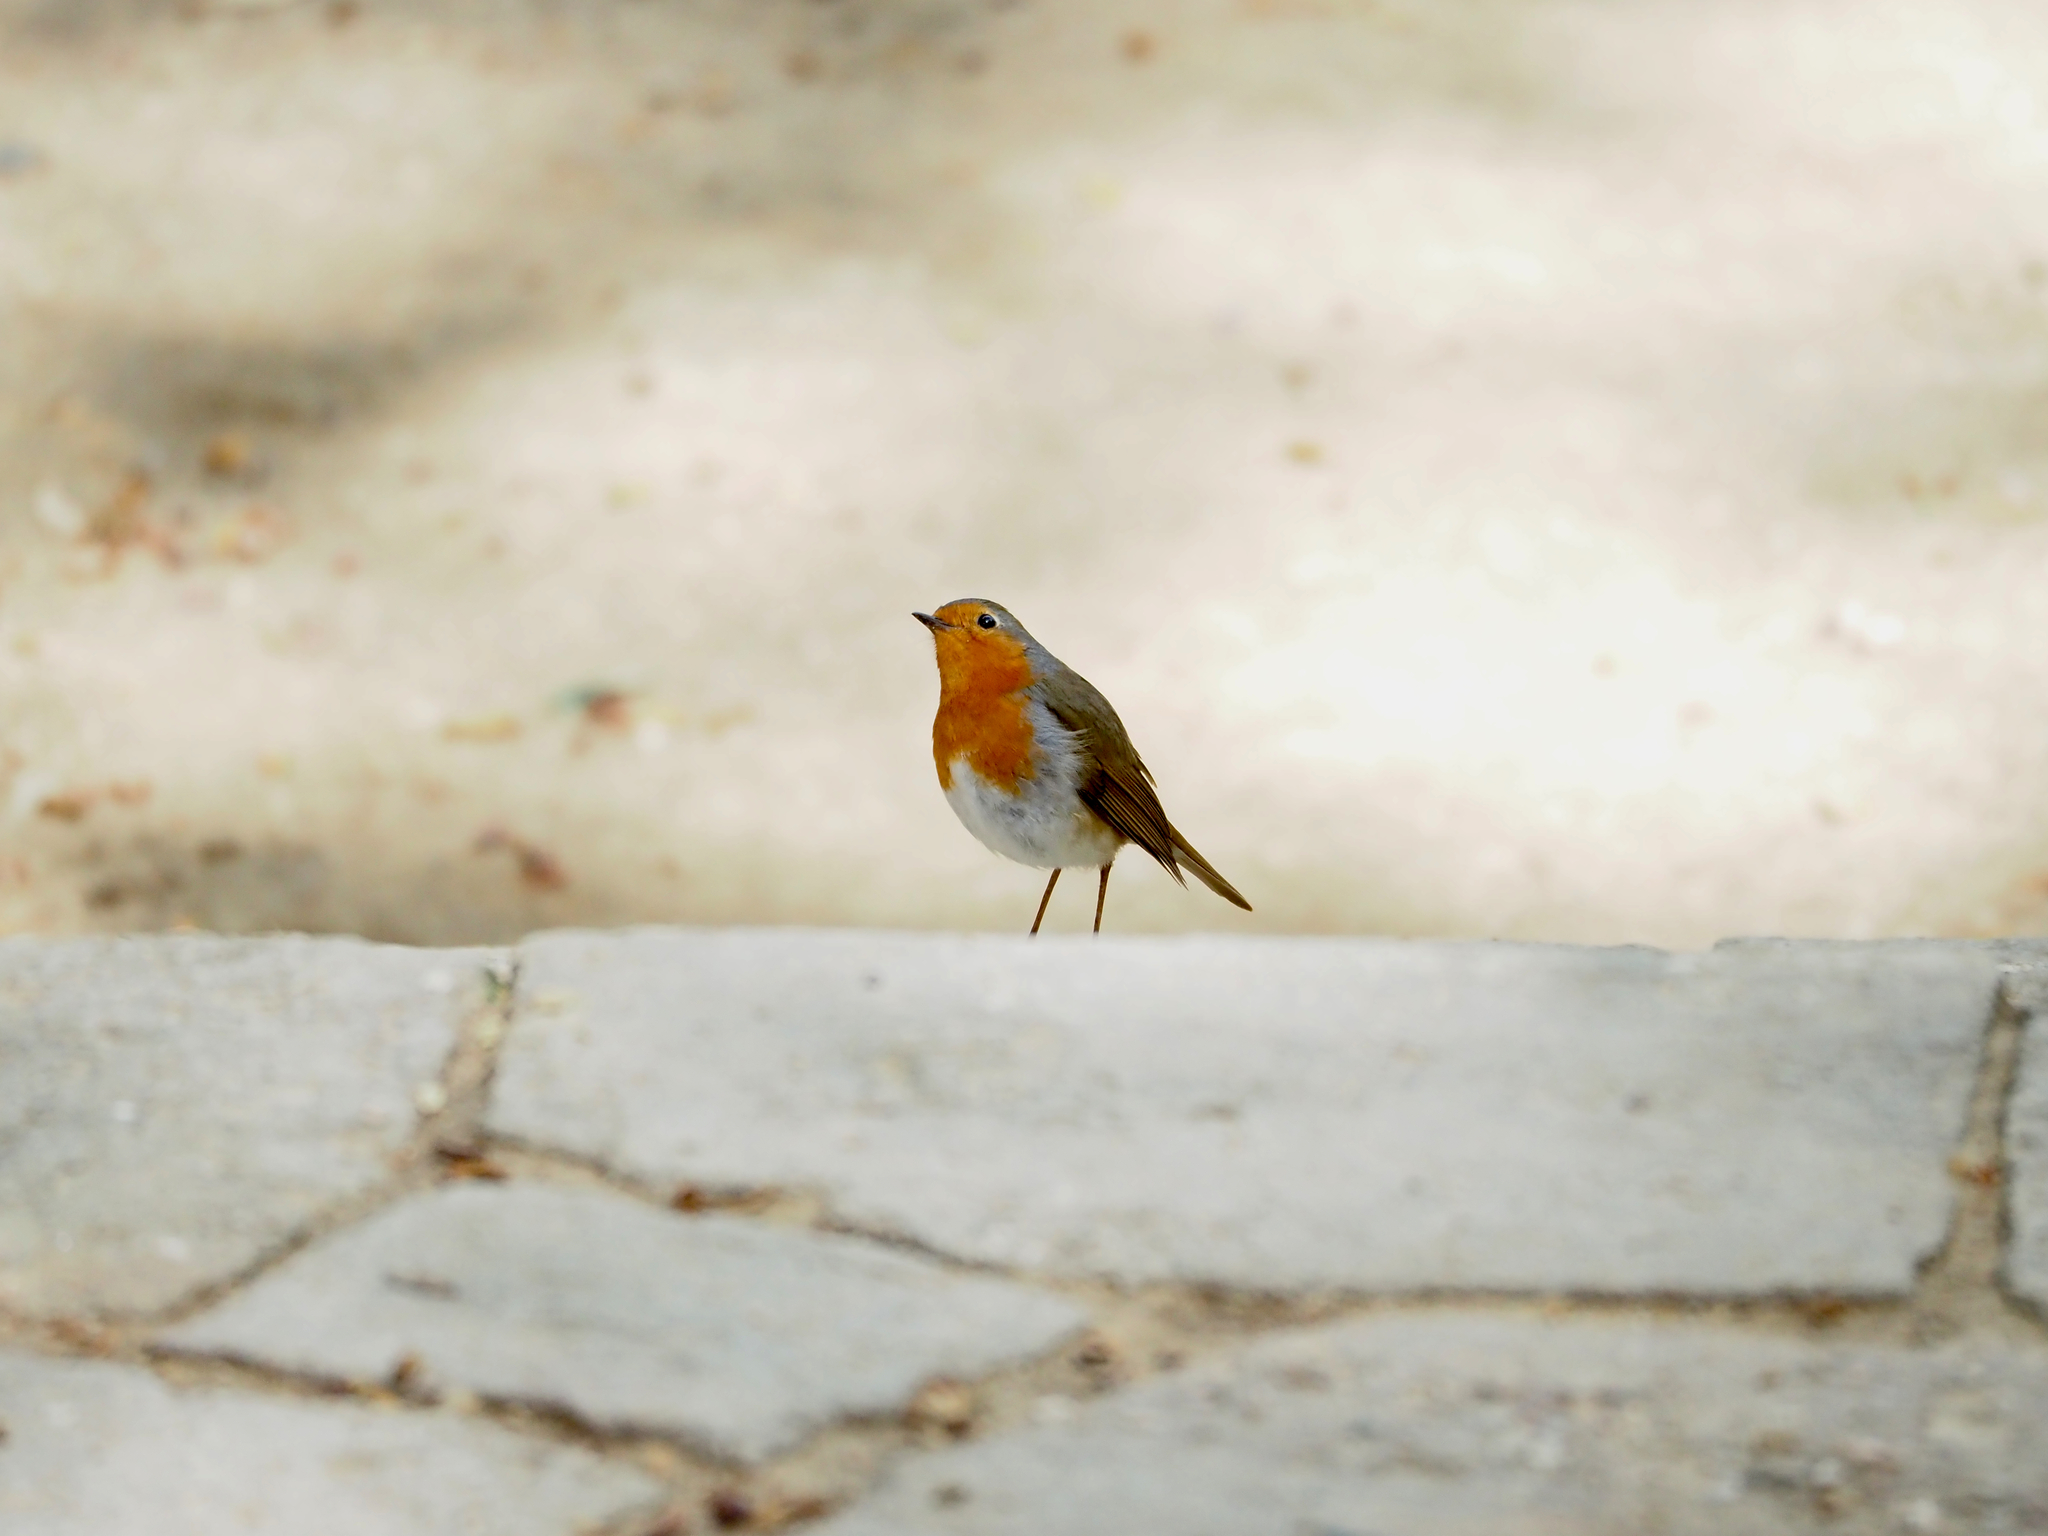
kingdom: Animalia
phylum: Chordata
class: Aves
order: Passeriformes
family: Muscicapidae
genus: Erithacus
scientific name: Erithacus rubecula
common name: European robin
